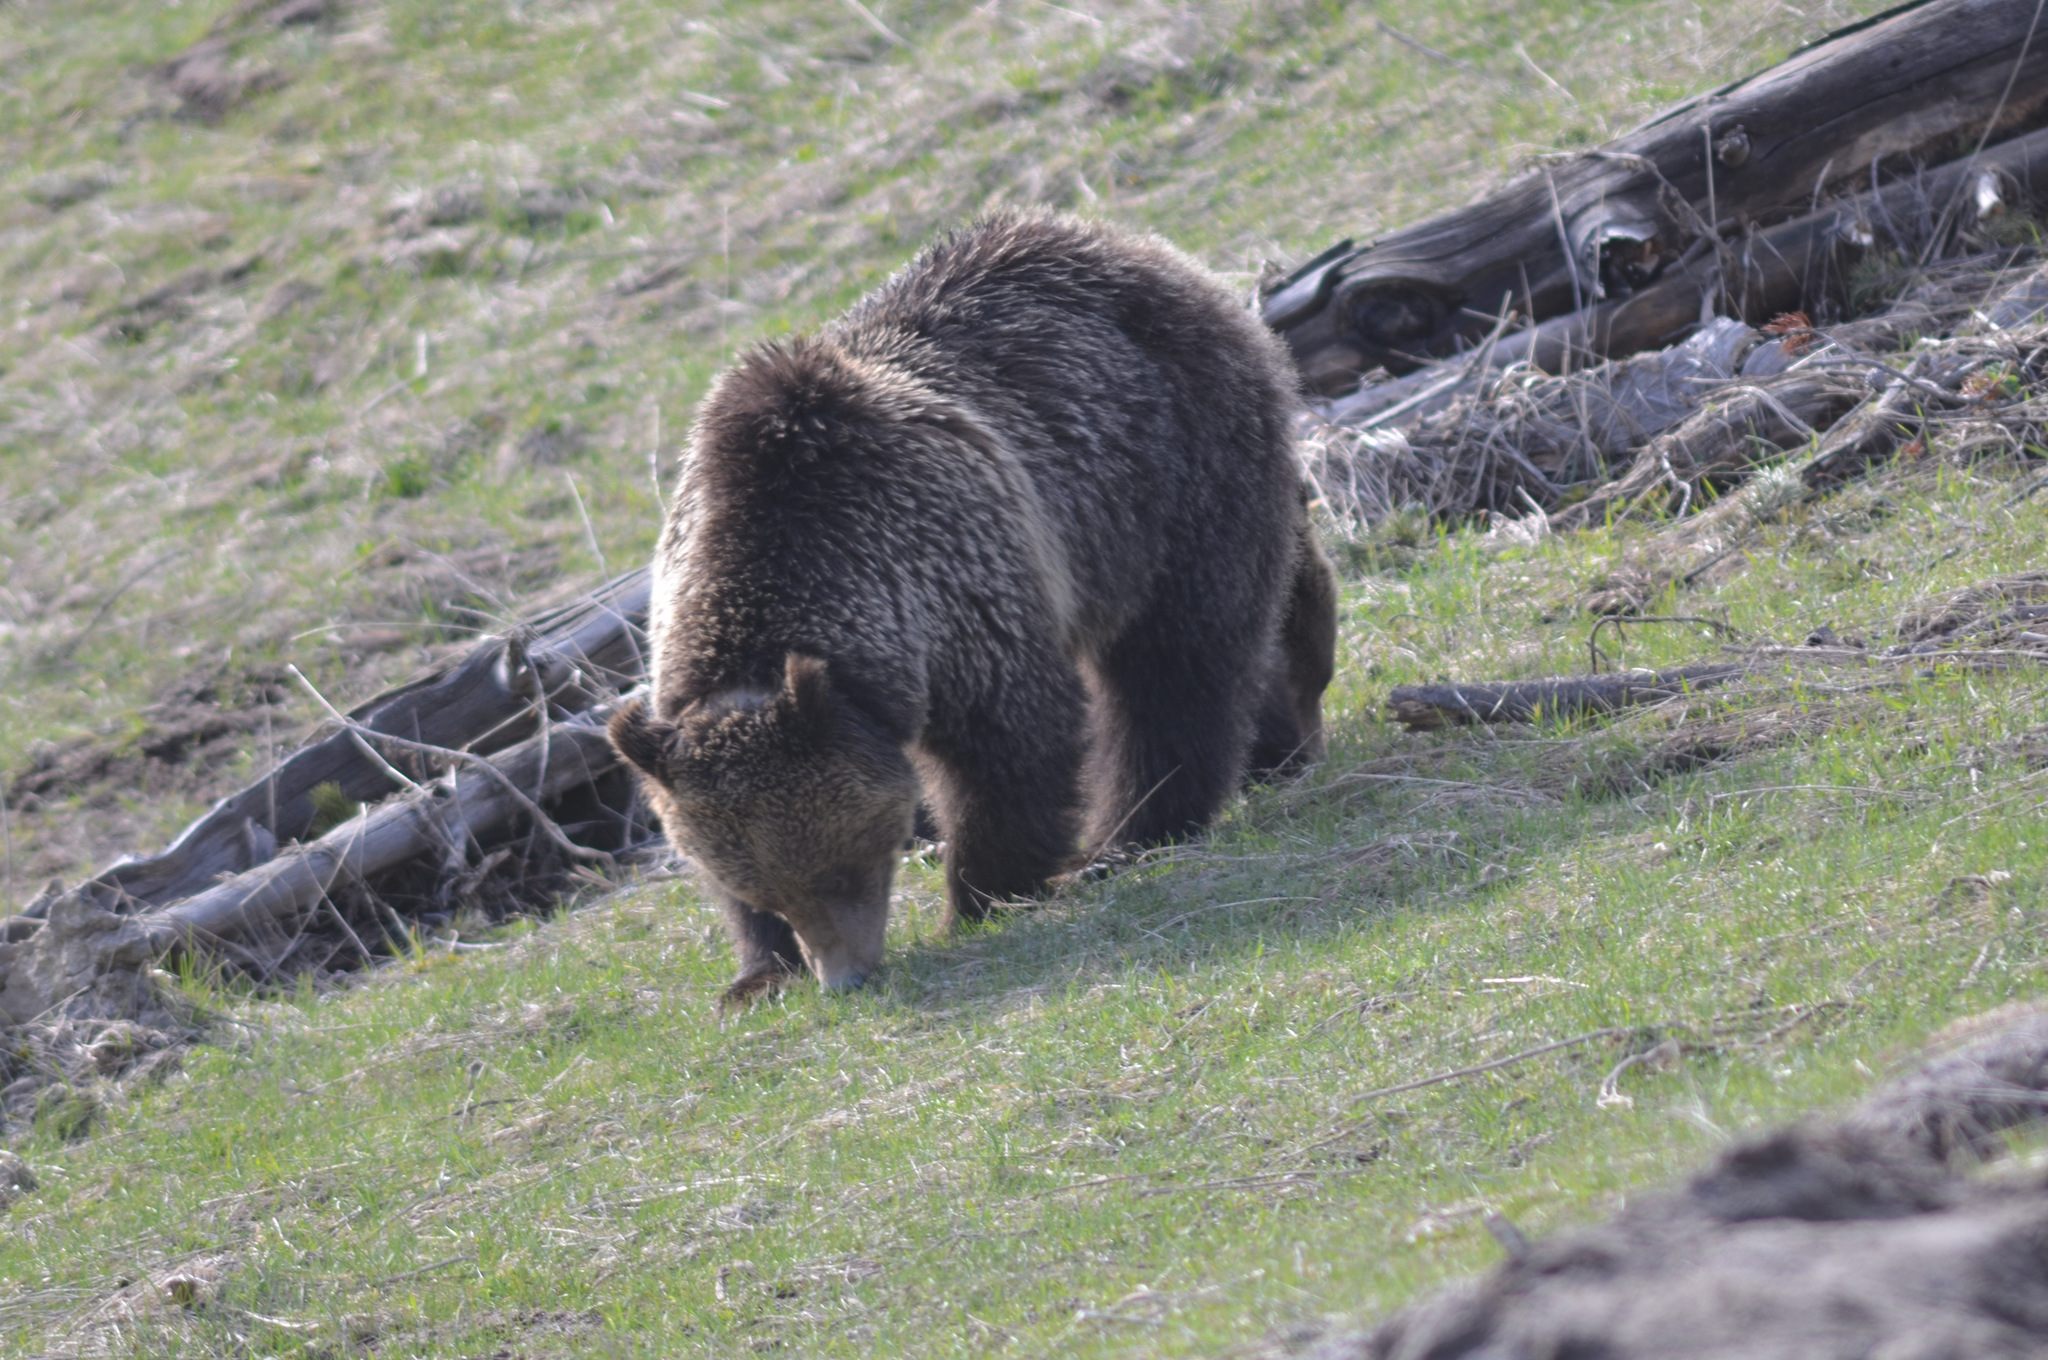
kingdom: Animalia
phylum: Chordata
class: Mammalia
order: Carnivora
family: Ursidae
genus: Ursus
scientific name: Ursus arctos
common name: Brown bear
